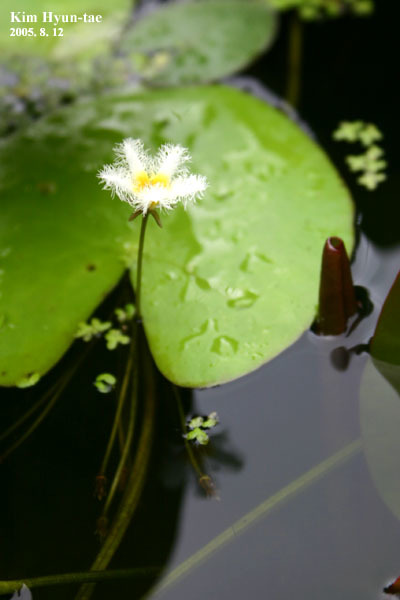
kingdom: Plantae
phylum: Tracheophyta
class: Magnoliopsida
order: Asterales
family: Menyanthaceae
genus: Nymphoides
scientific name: Nymphoides indica
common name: Water-snowflake
